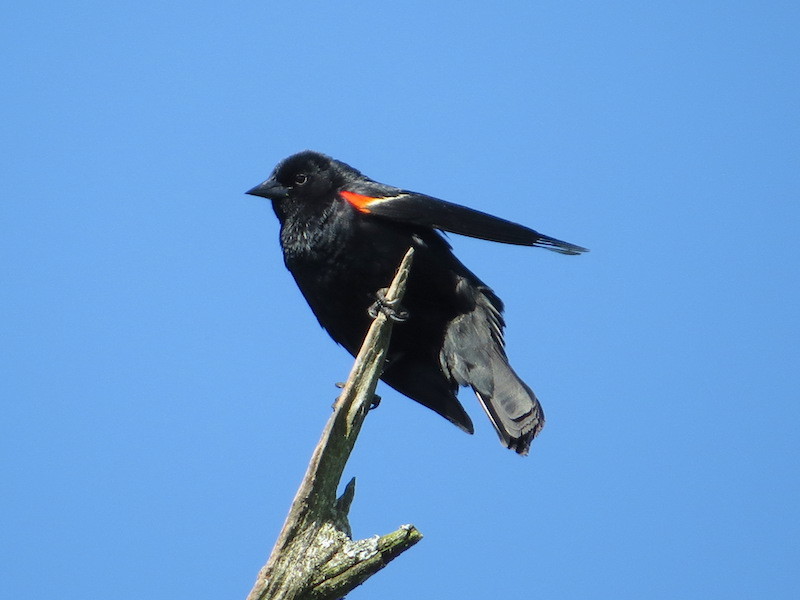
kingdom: Animalia
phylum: Chordata
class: Aves
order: Passeriformes
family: Icteridae
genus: Agelaius
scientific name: Agelaius phoeniceus
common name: Red-winged blackbird
